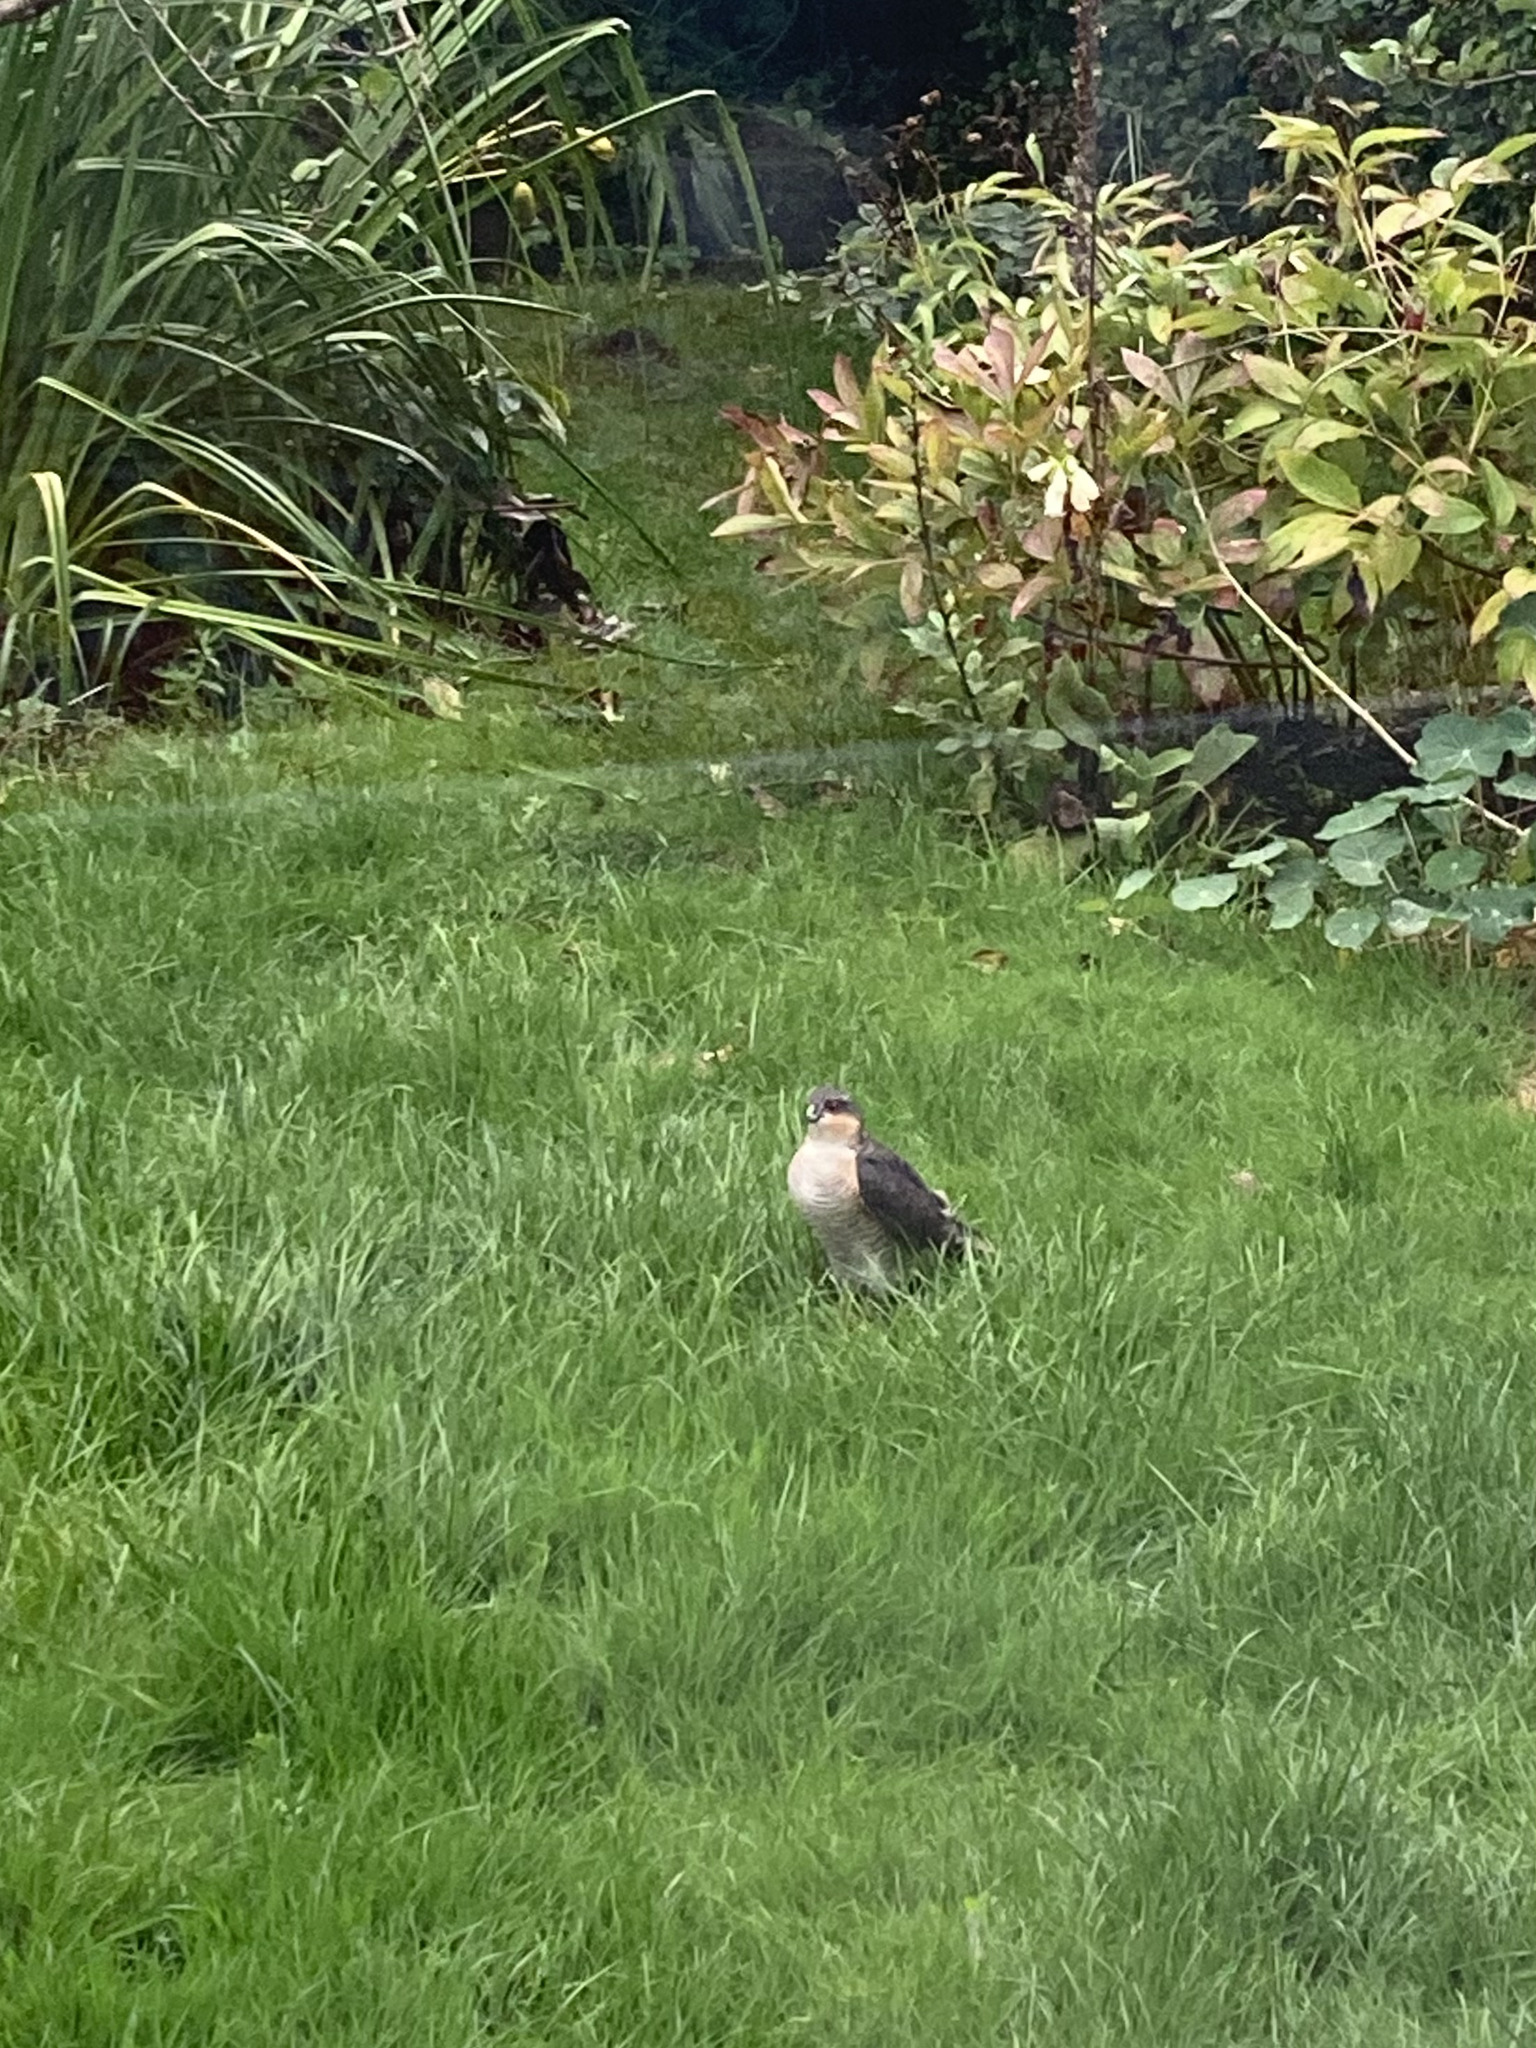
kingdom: Animalia
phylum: Chordata
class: Aves
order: Accipitriformes
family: Accipitridae
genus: Accipiter
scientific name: Accipiter nisus
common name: Eurasian sparrowhawk
